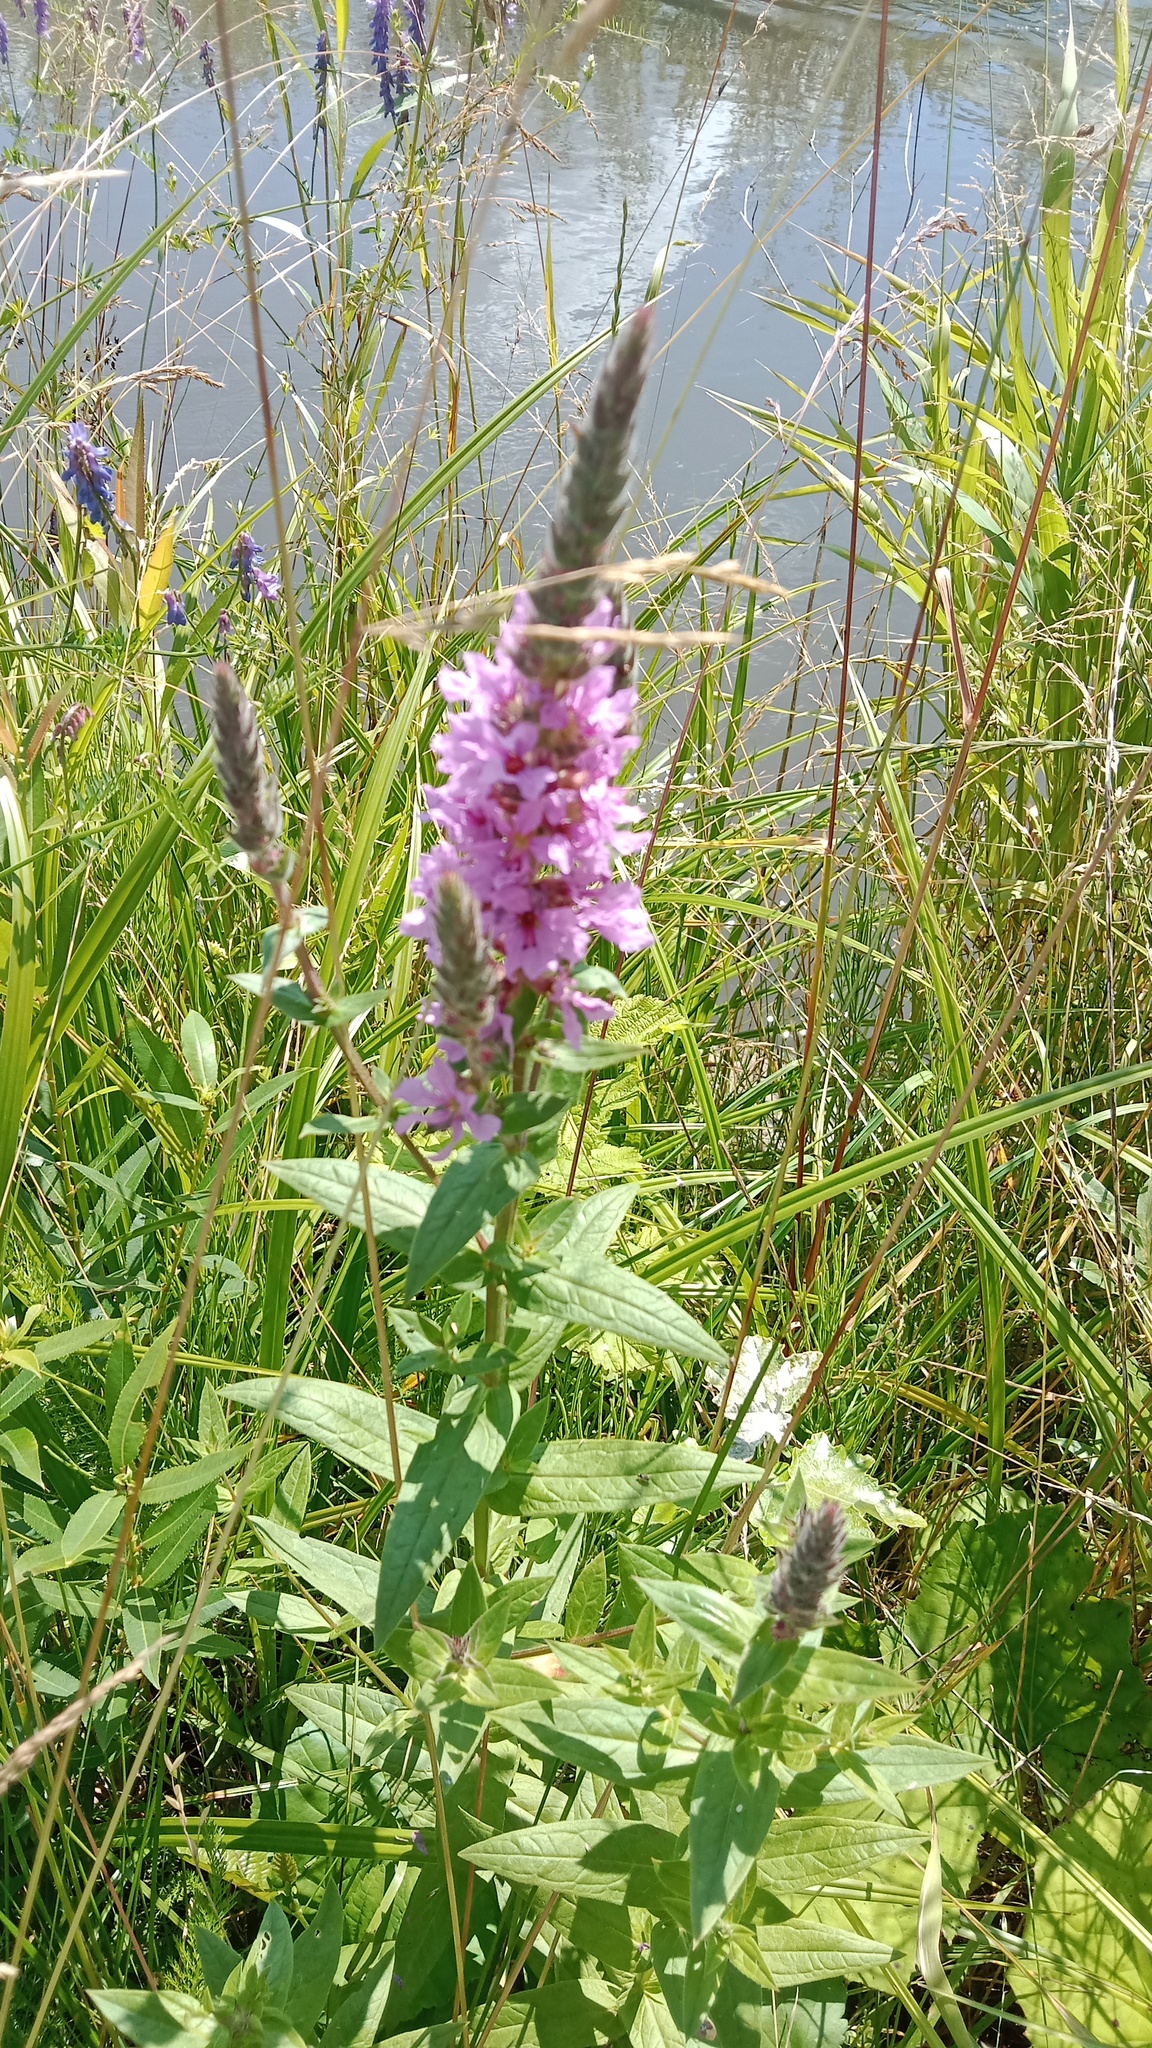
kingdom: Plantae
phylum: Tracheophyta
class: Magnoliopsida
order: Myrtales
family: Lythraceae
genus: Lythrum
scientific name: Lythrum salicaria
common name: Purple loosestrife
